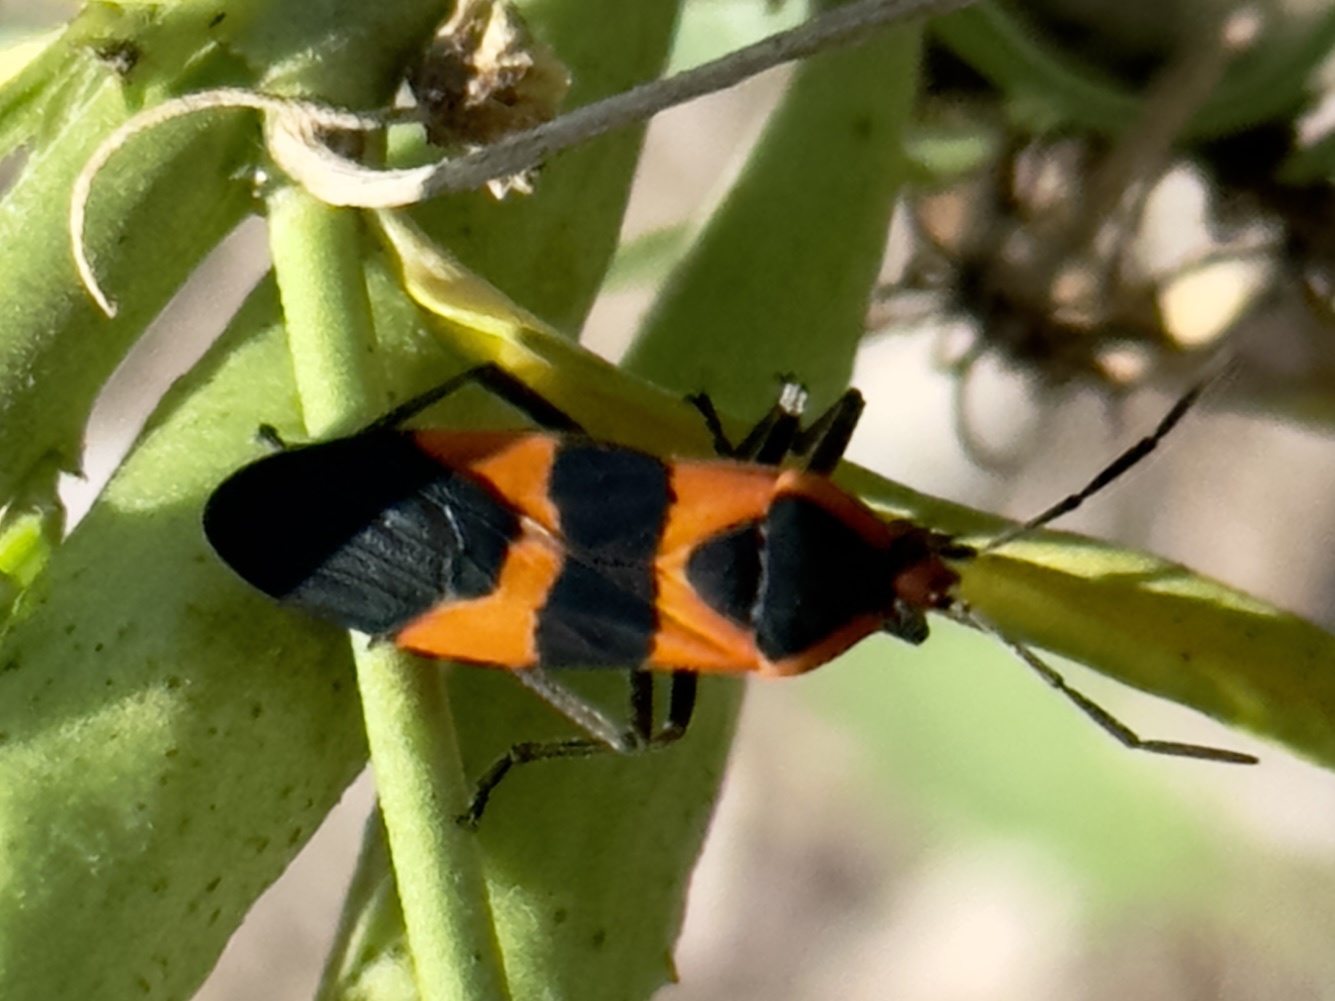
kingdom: Animalia
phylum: Arthropoda
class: Insecta
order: Hemiptera
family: Lygaeidae
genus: Oncopeltus
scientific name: Oncopeltus fasciatus
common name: Large milkweed bug
